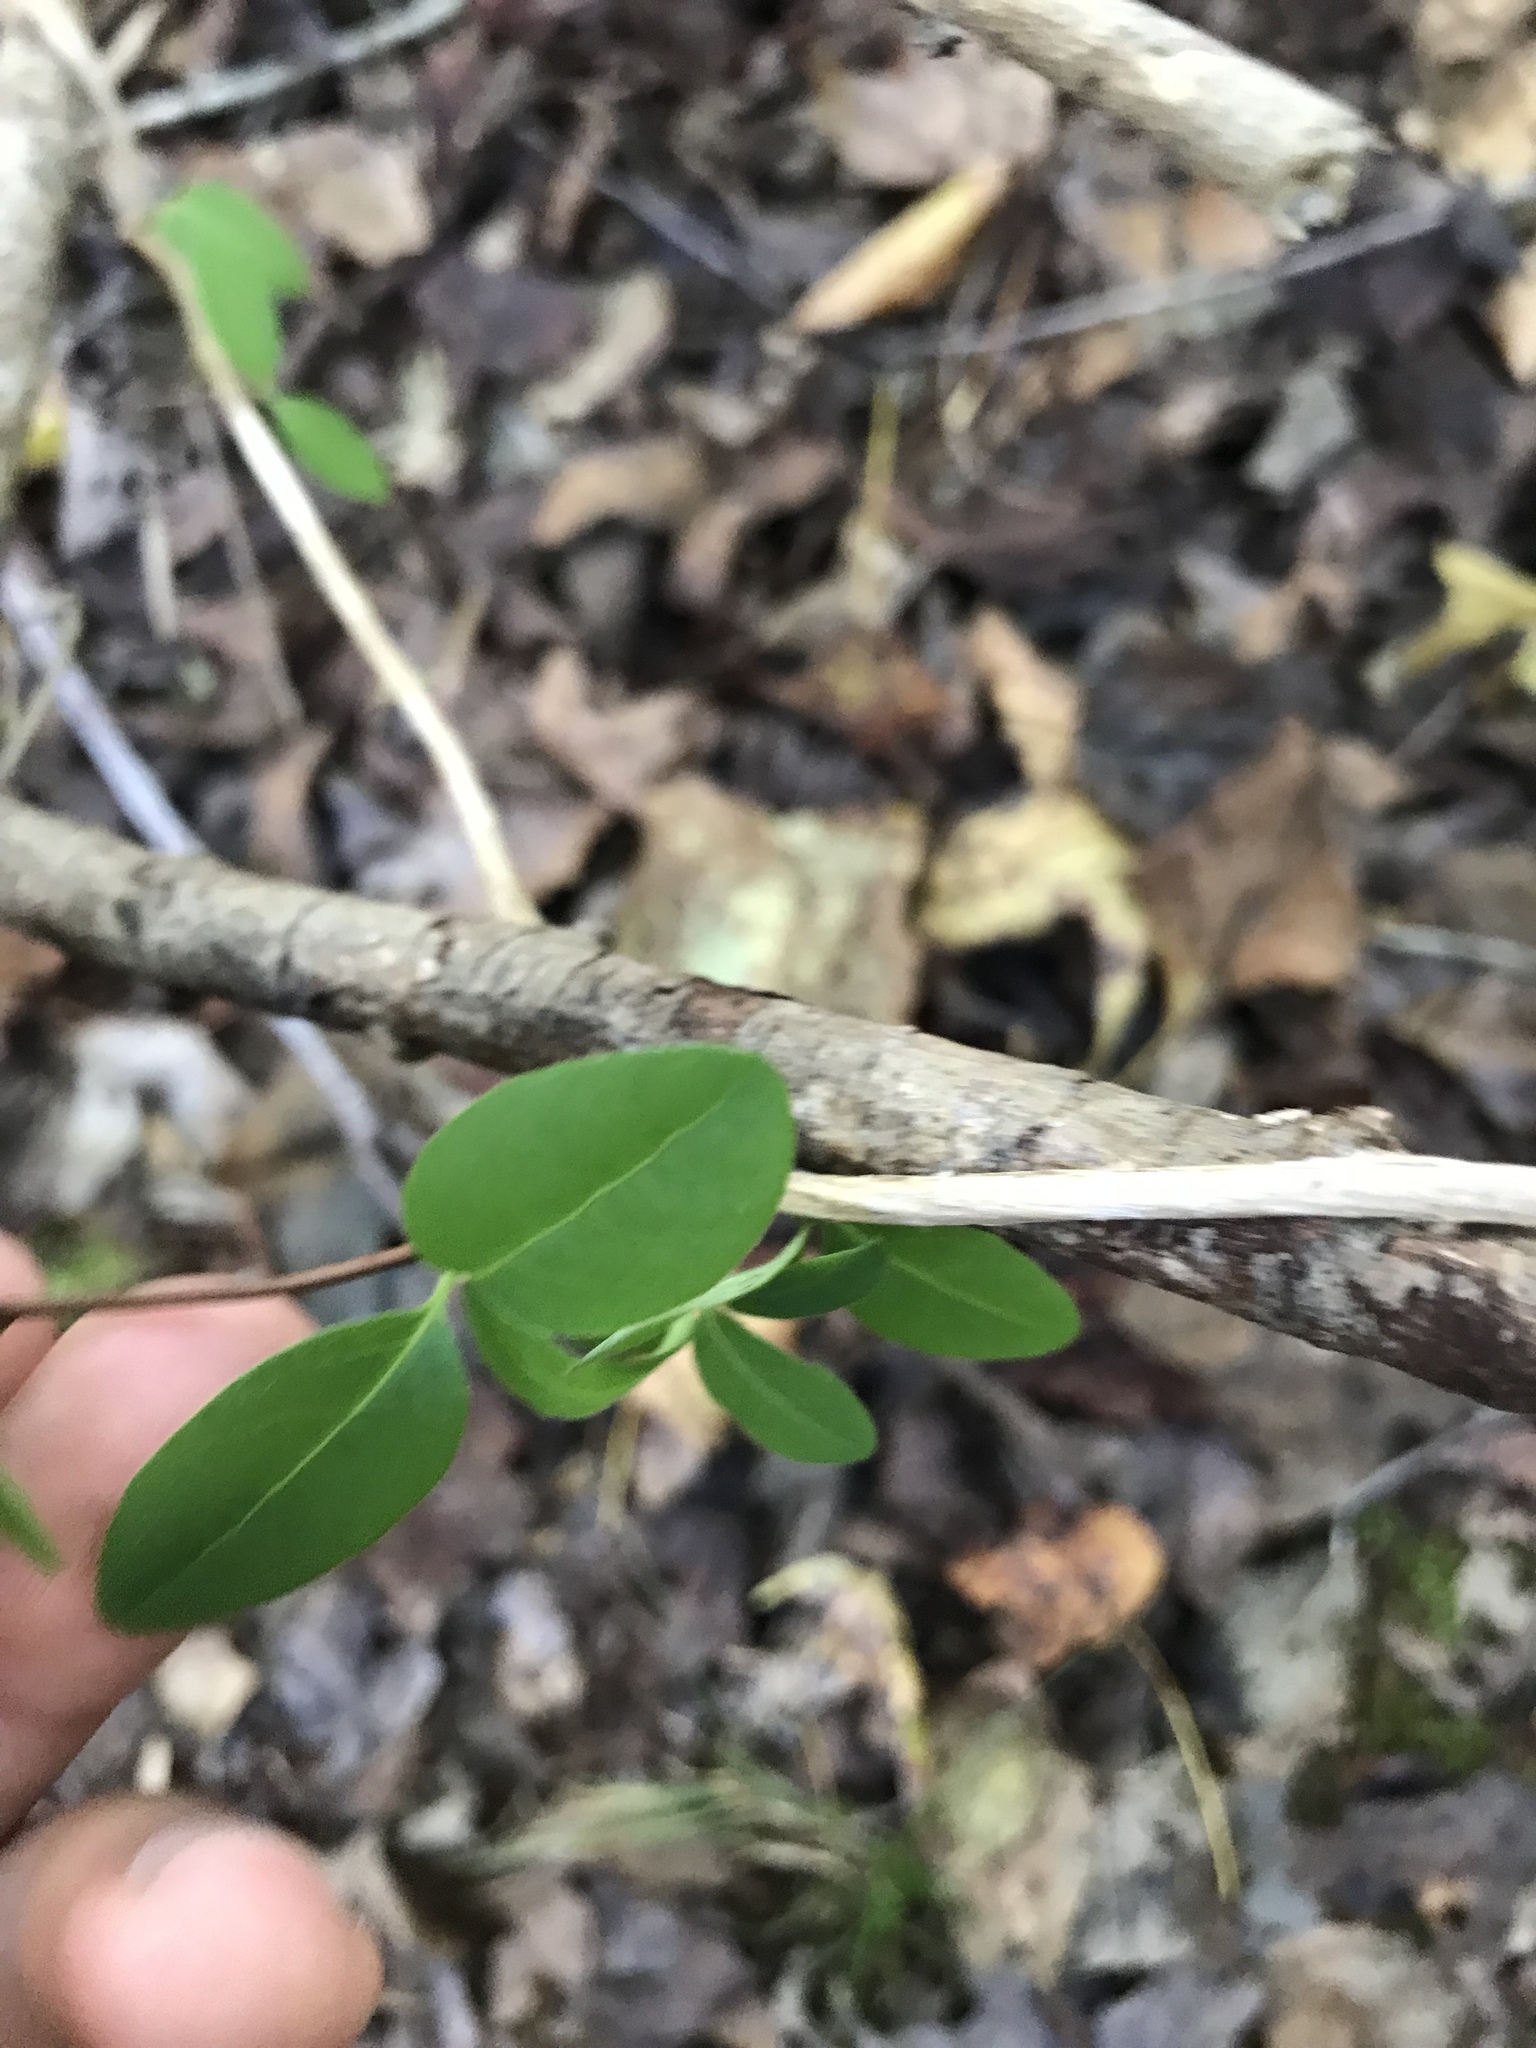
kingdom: Plantae
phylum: Tracheophyta
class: Magnoliopsida
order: Dipsacales
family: Caprifoliaceae
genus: Lonicera
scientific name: Lonicera japonica
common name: Japanese honeysuckle
